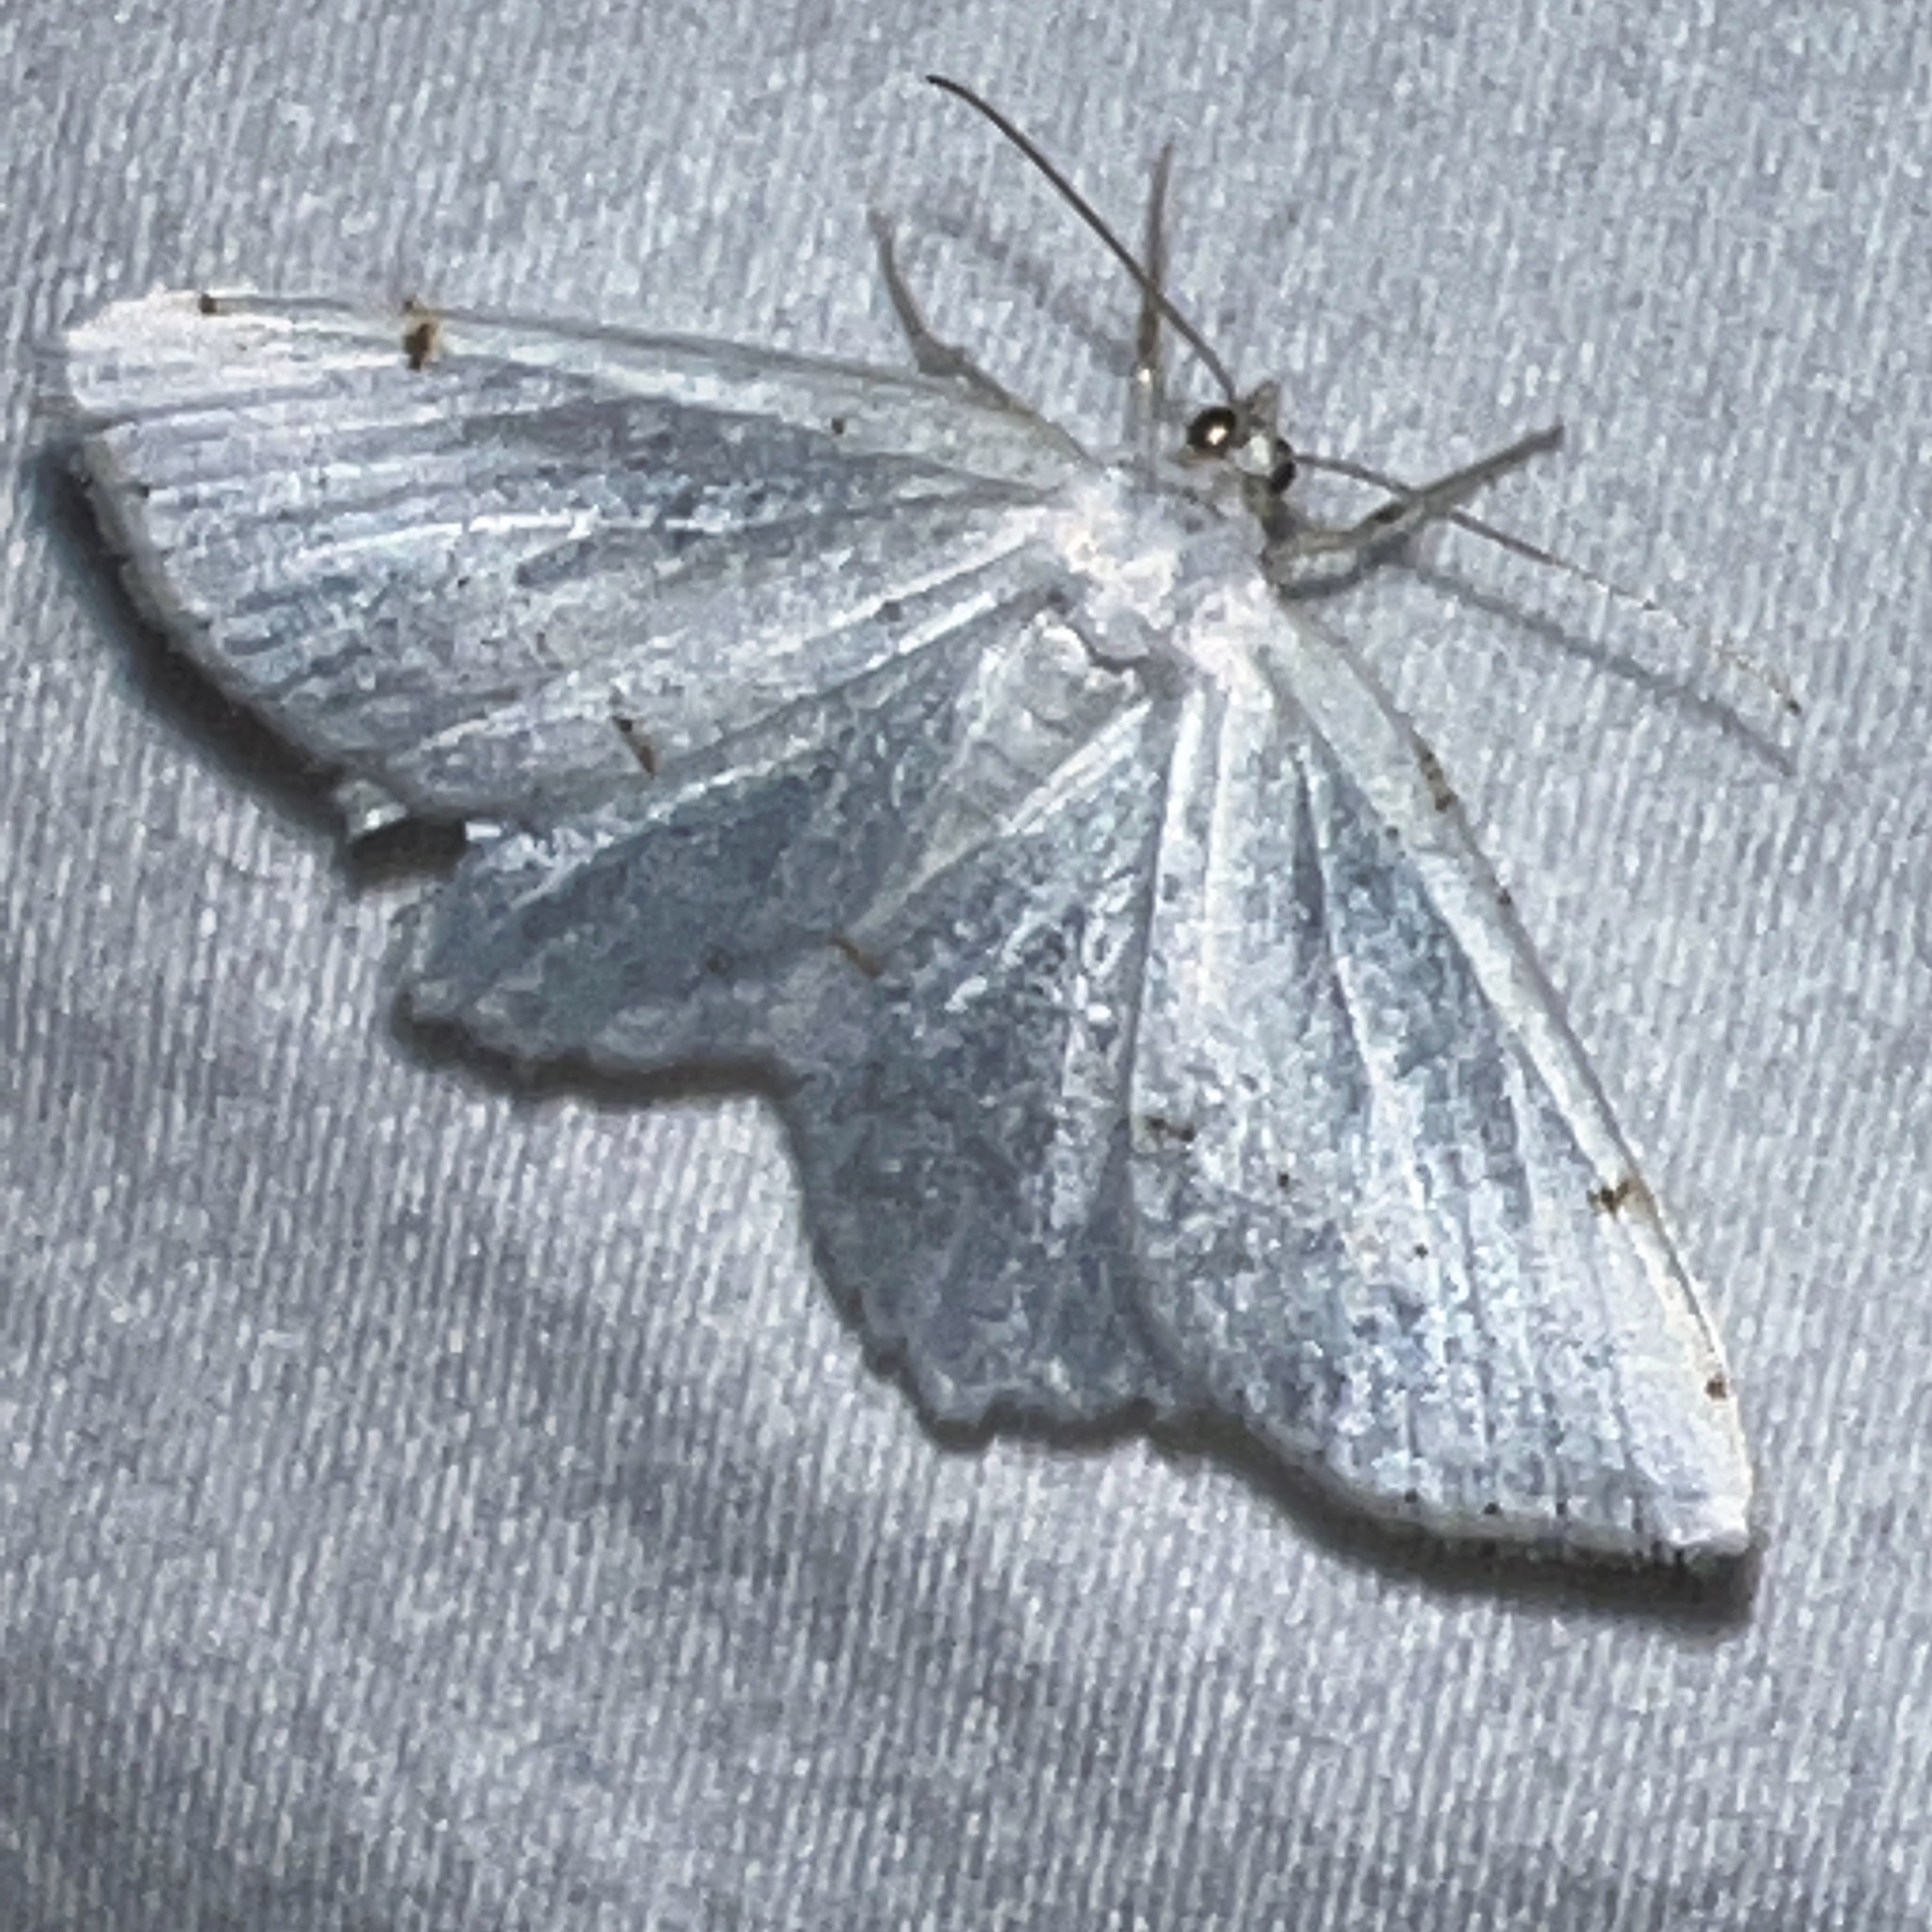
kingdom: Animalia
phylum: Arthropoda
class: Insecta
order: Lepidoptera
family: Geometridae
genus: Macaria
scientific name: Macaria pustularia
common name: Lesser maple spanworm moth
